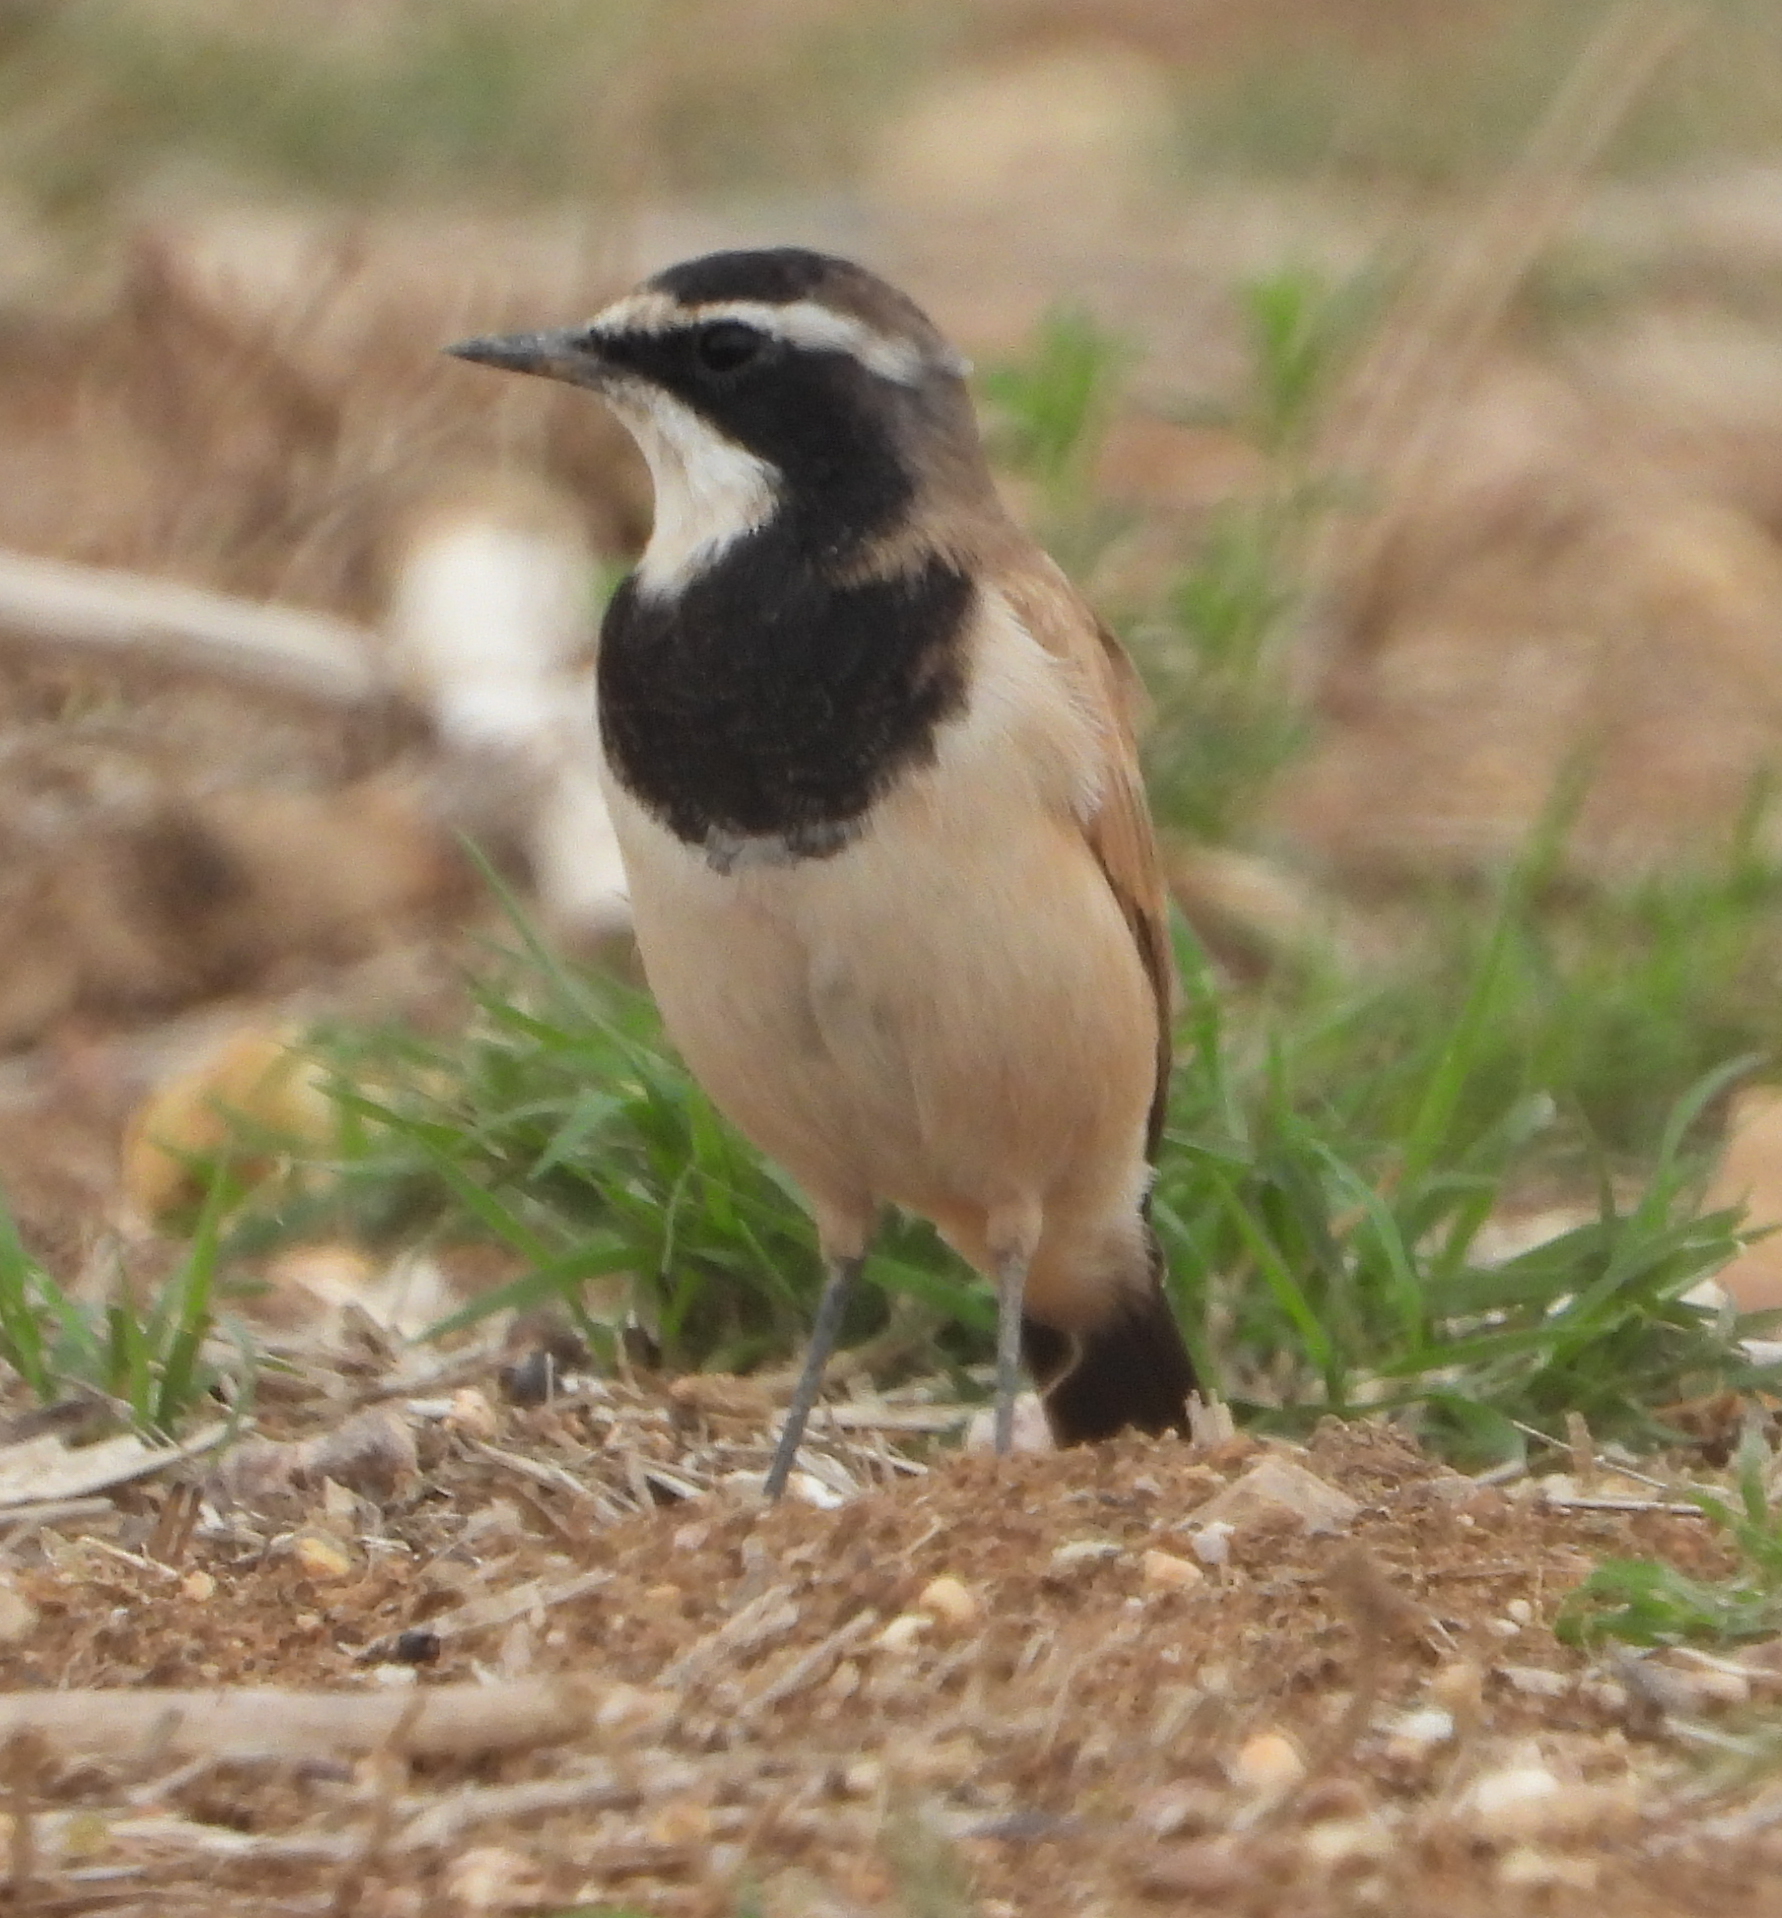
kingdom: Animalia
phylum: Chordata
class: Aves
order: Passeriformes
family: Muscicapidae
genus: Oenanthe
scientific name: Oenanthe pileata
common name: Capped wheatear
